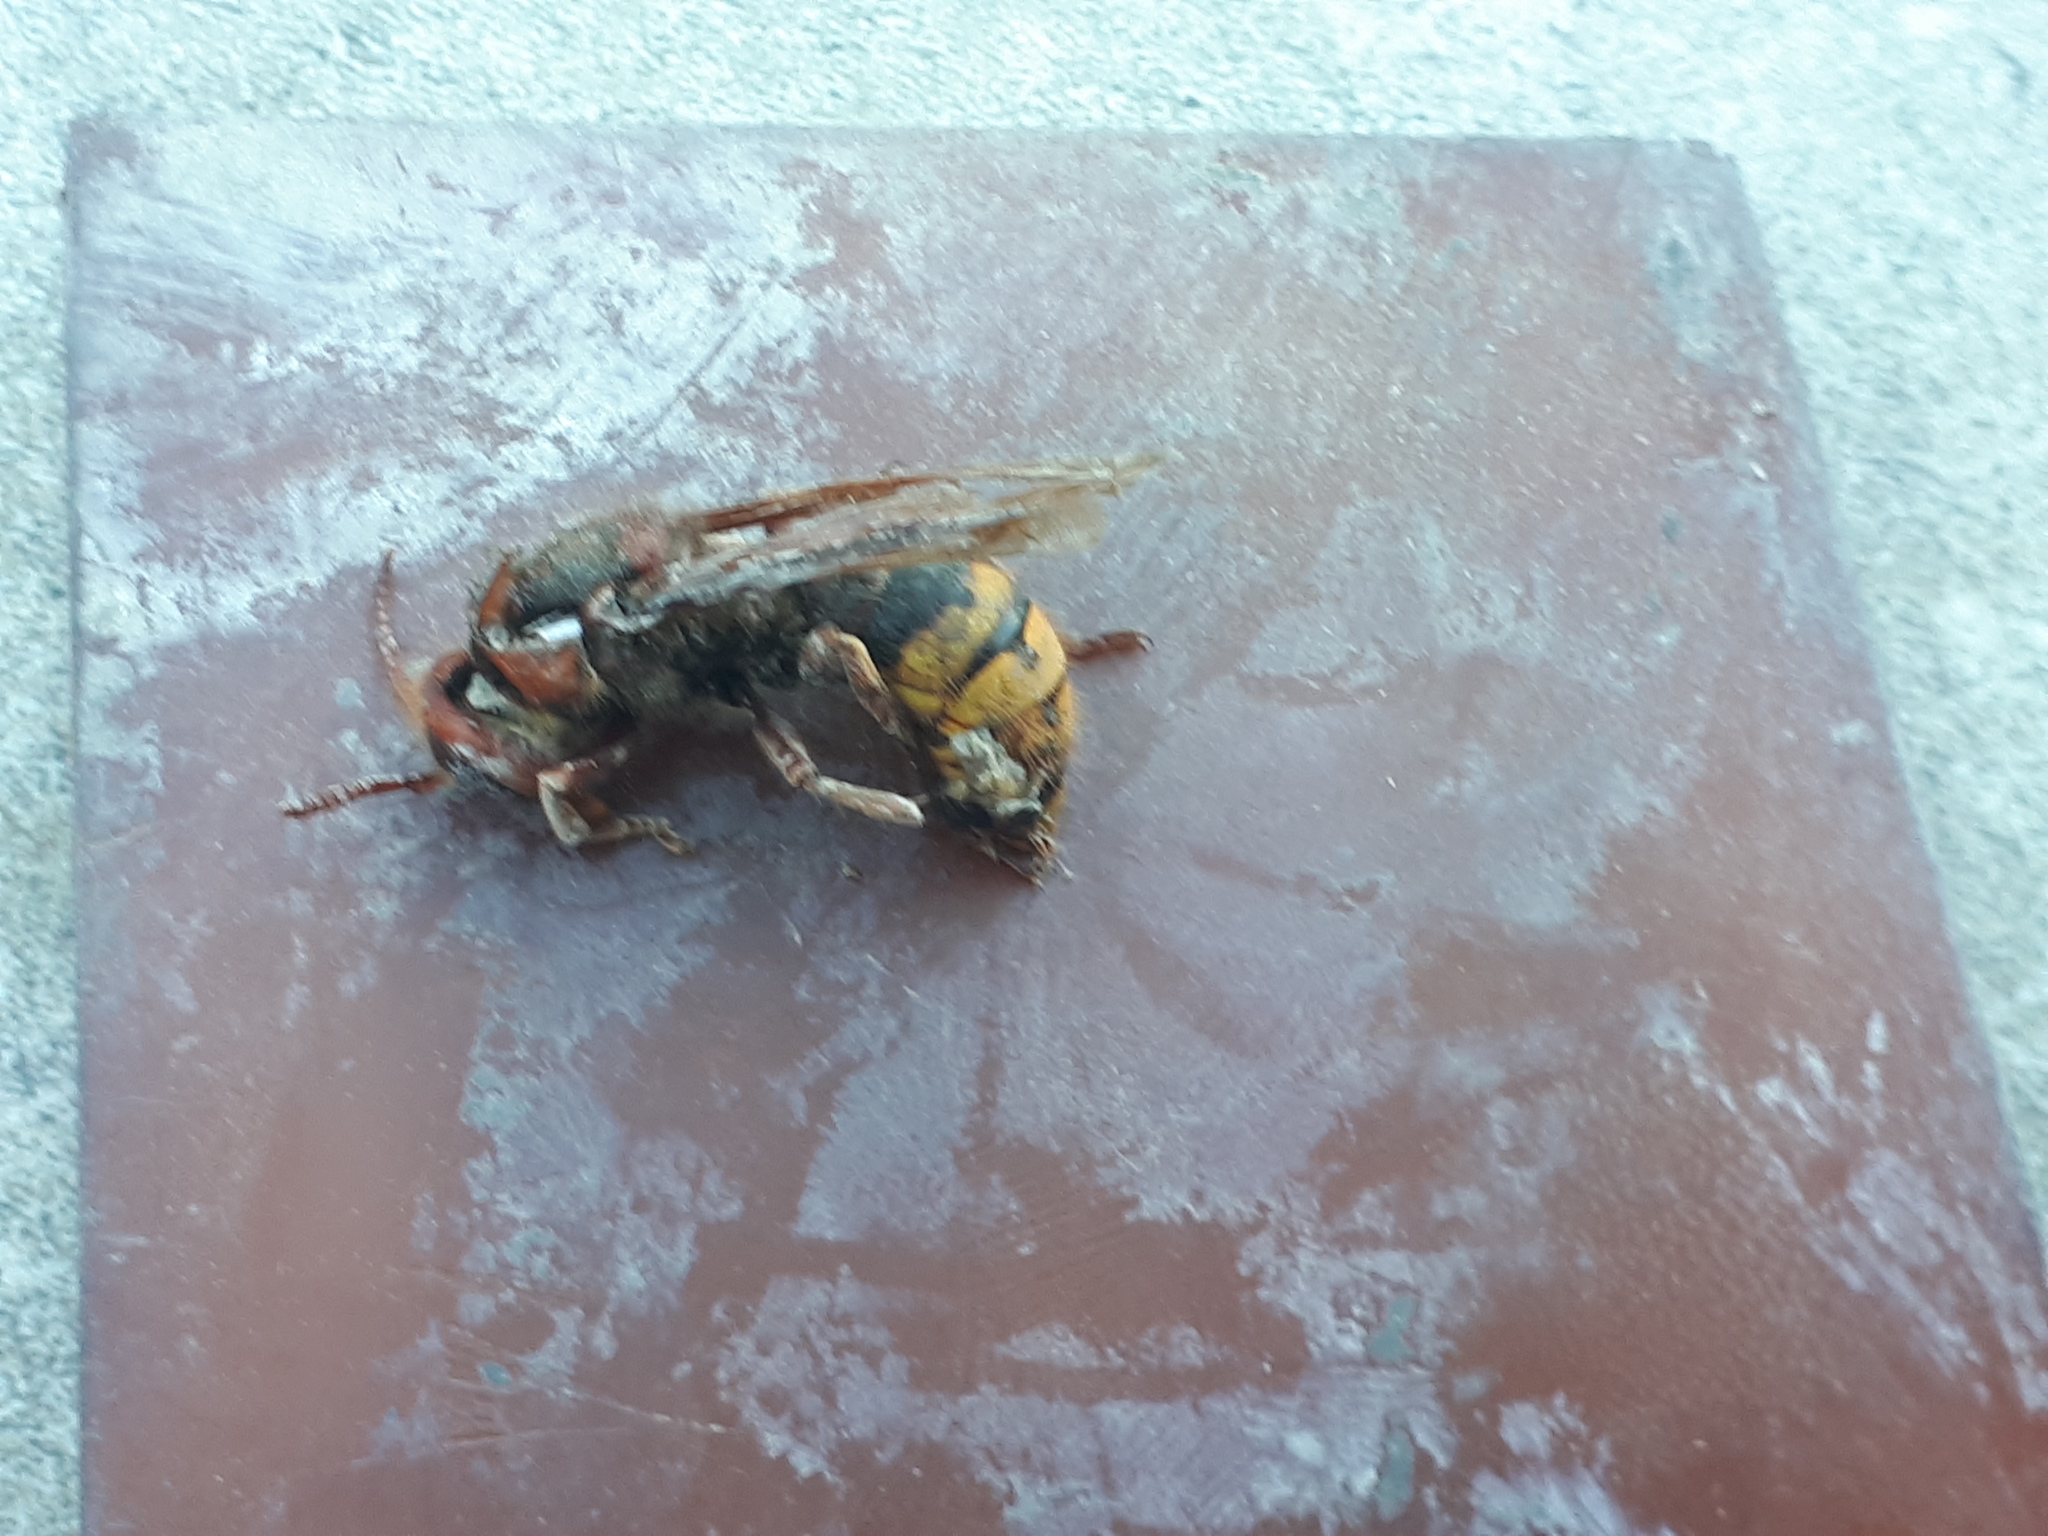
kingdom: Animalia
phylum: Arthropoda
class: Insecta
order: Hymenoptera
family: Vespidae
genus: Vespa
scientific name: Vespa crabro
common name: Hornet
